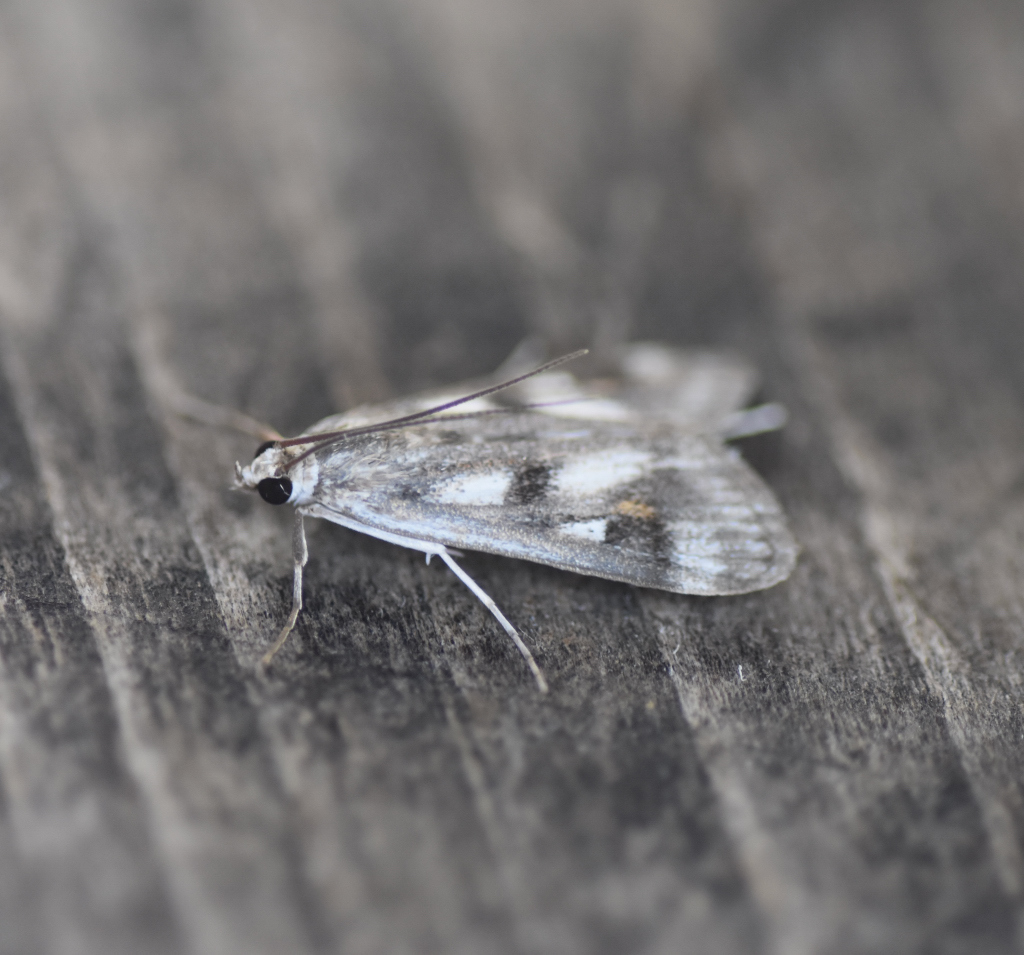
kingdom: Animalia
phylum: Arthropoda
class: Insecta
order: Lepidoptera
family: Crambidae
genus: Parapoynx
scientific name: Parapoynx maculalis
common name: Polymorphic pondweed moth
